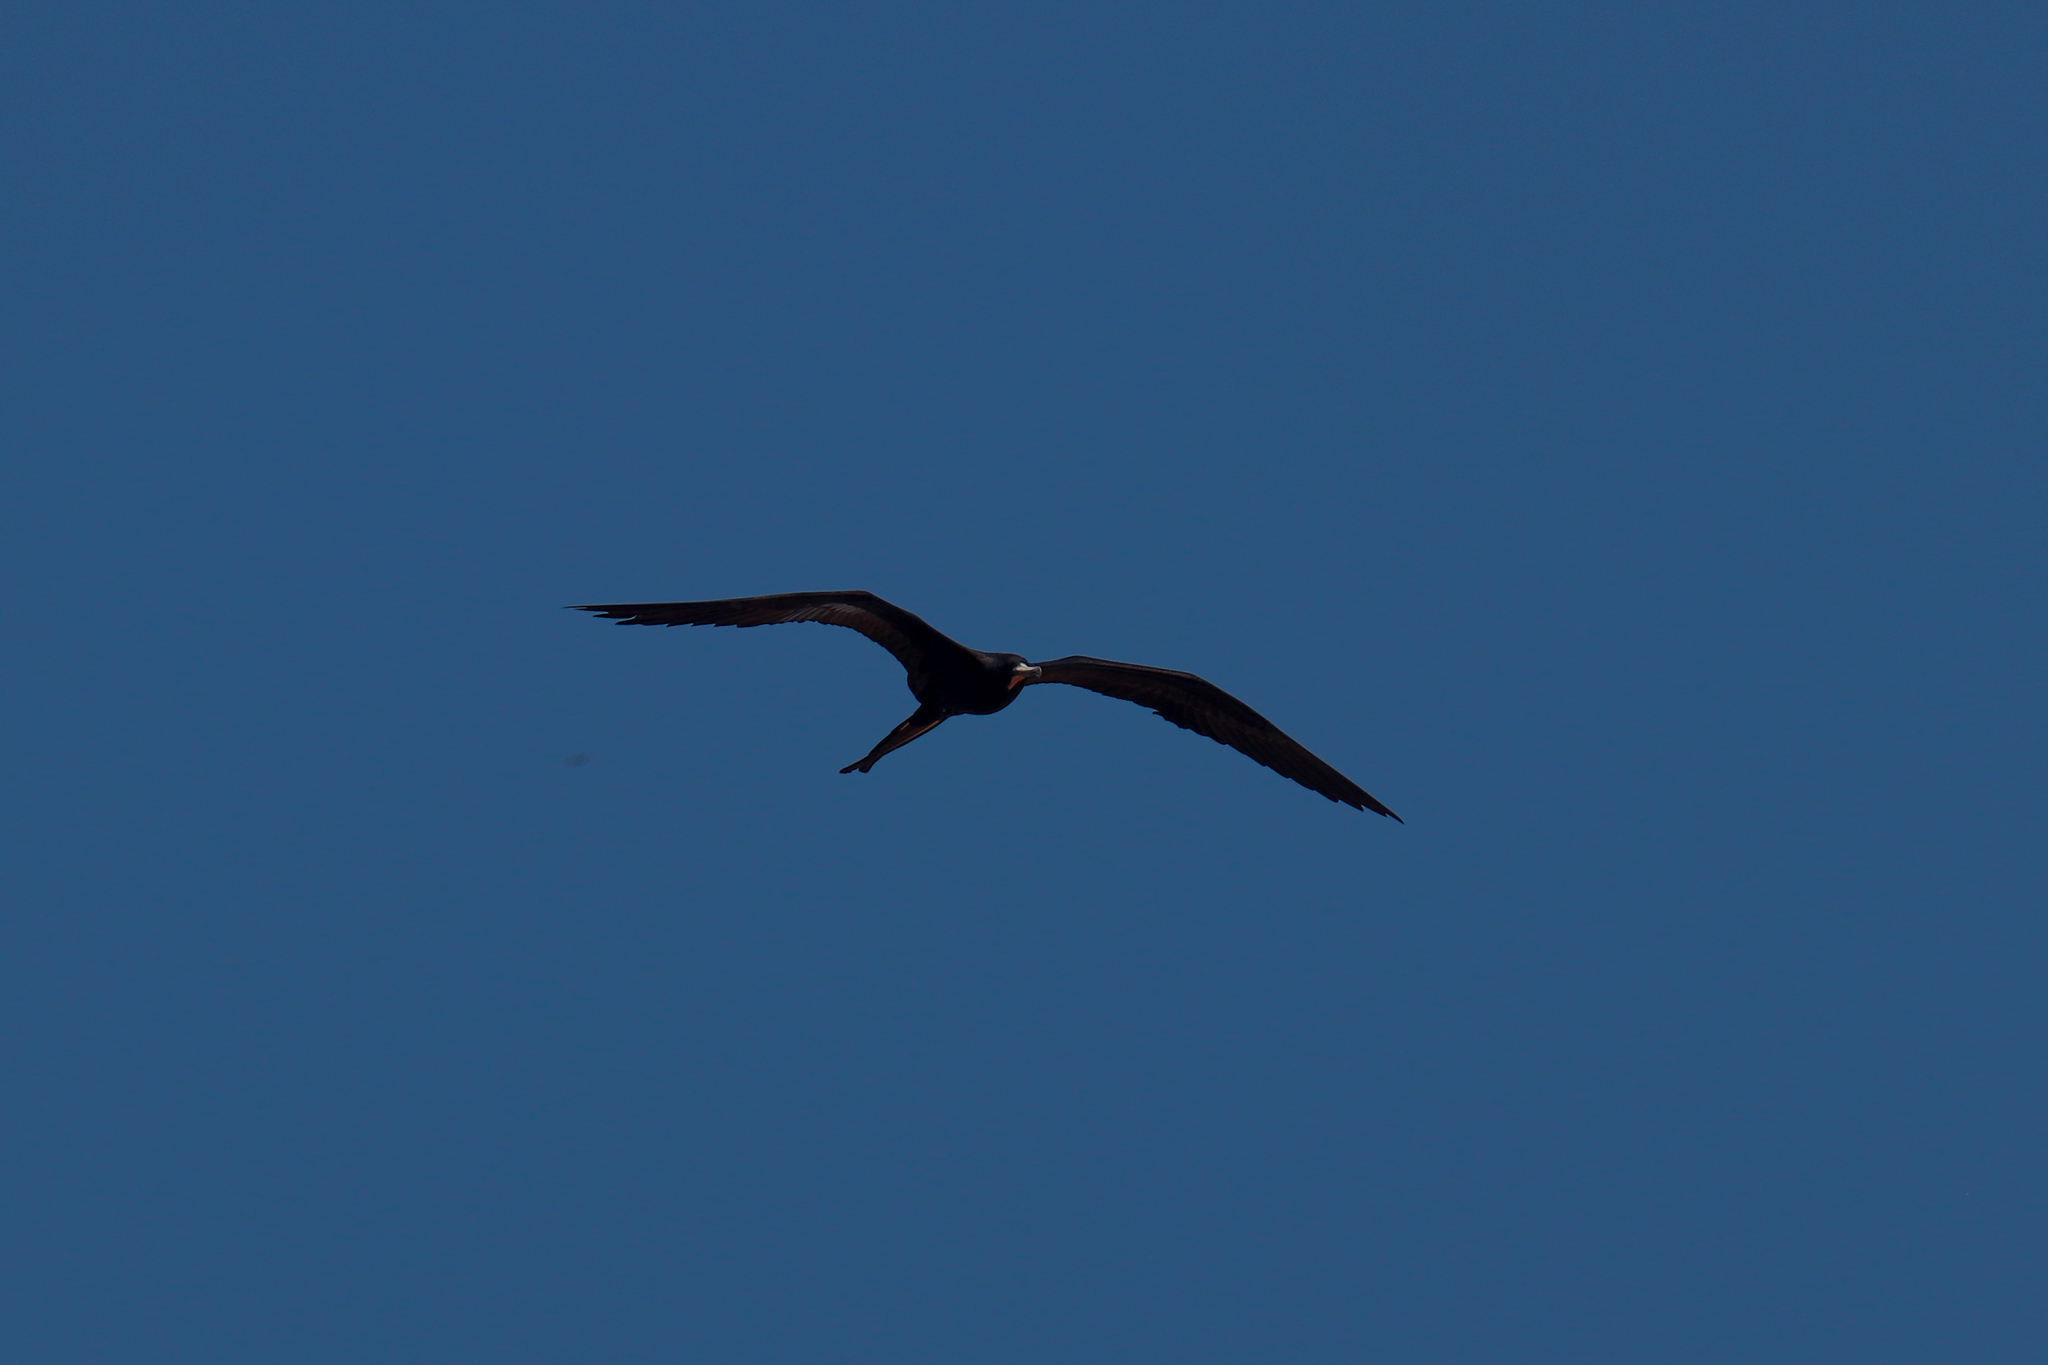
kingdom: Animalia
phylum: Chordata
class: Aves
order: Suliformes
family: Fregatidae
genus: Fregata
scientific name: Fregata magnificens
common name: Magnificent frigatebird
